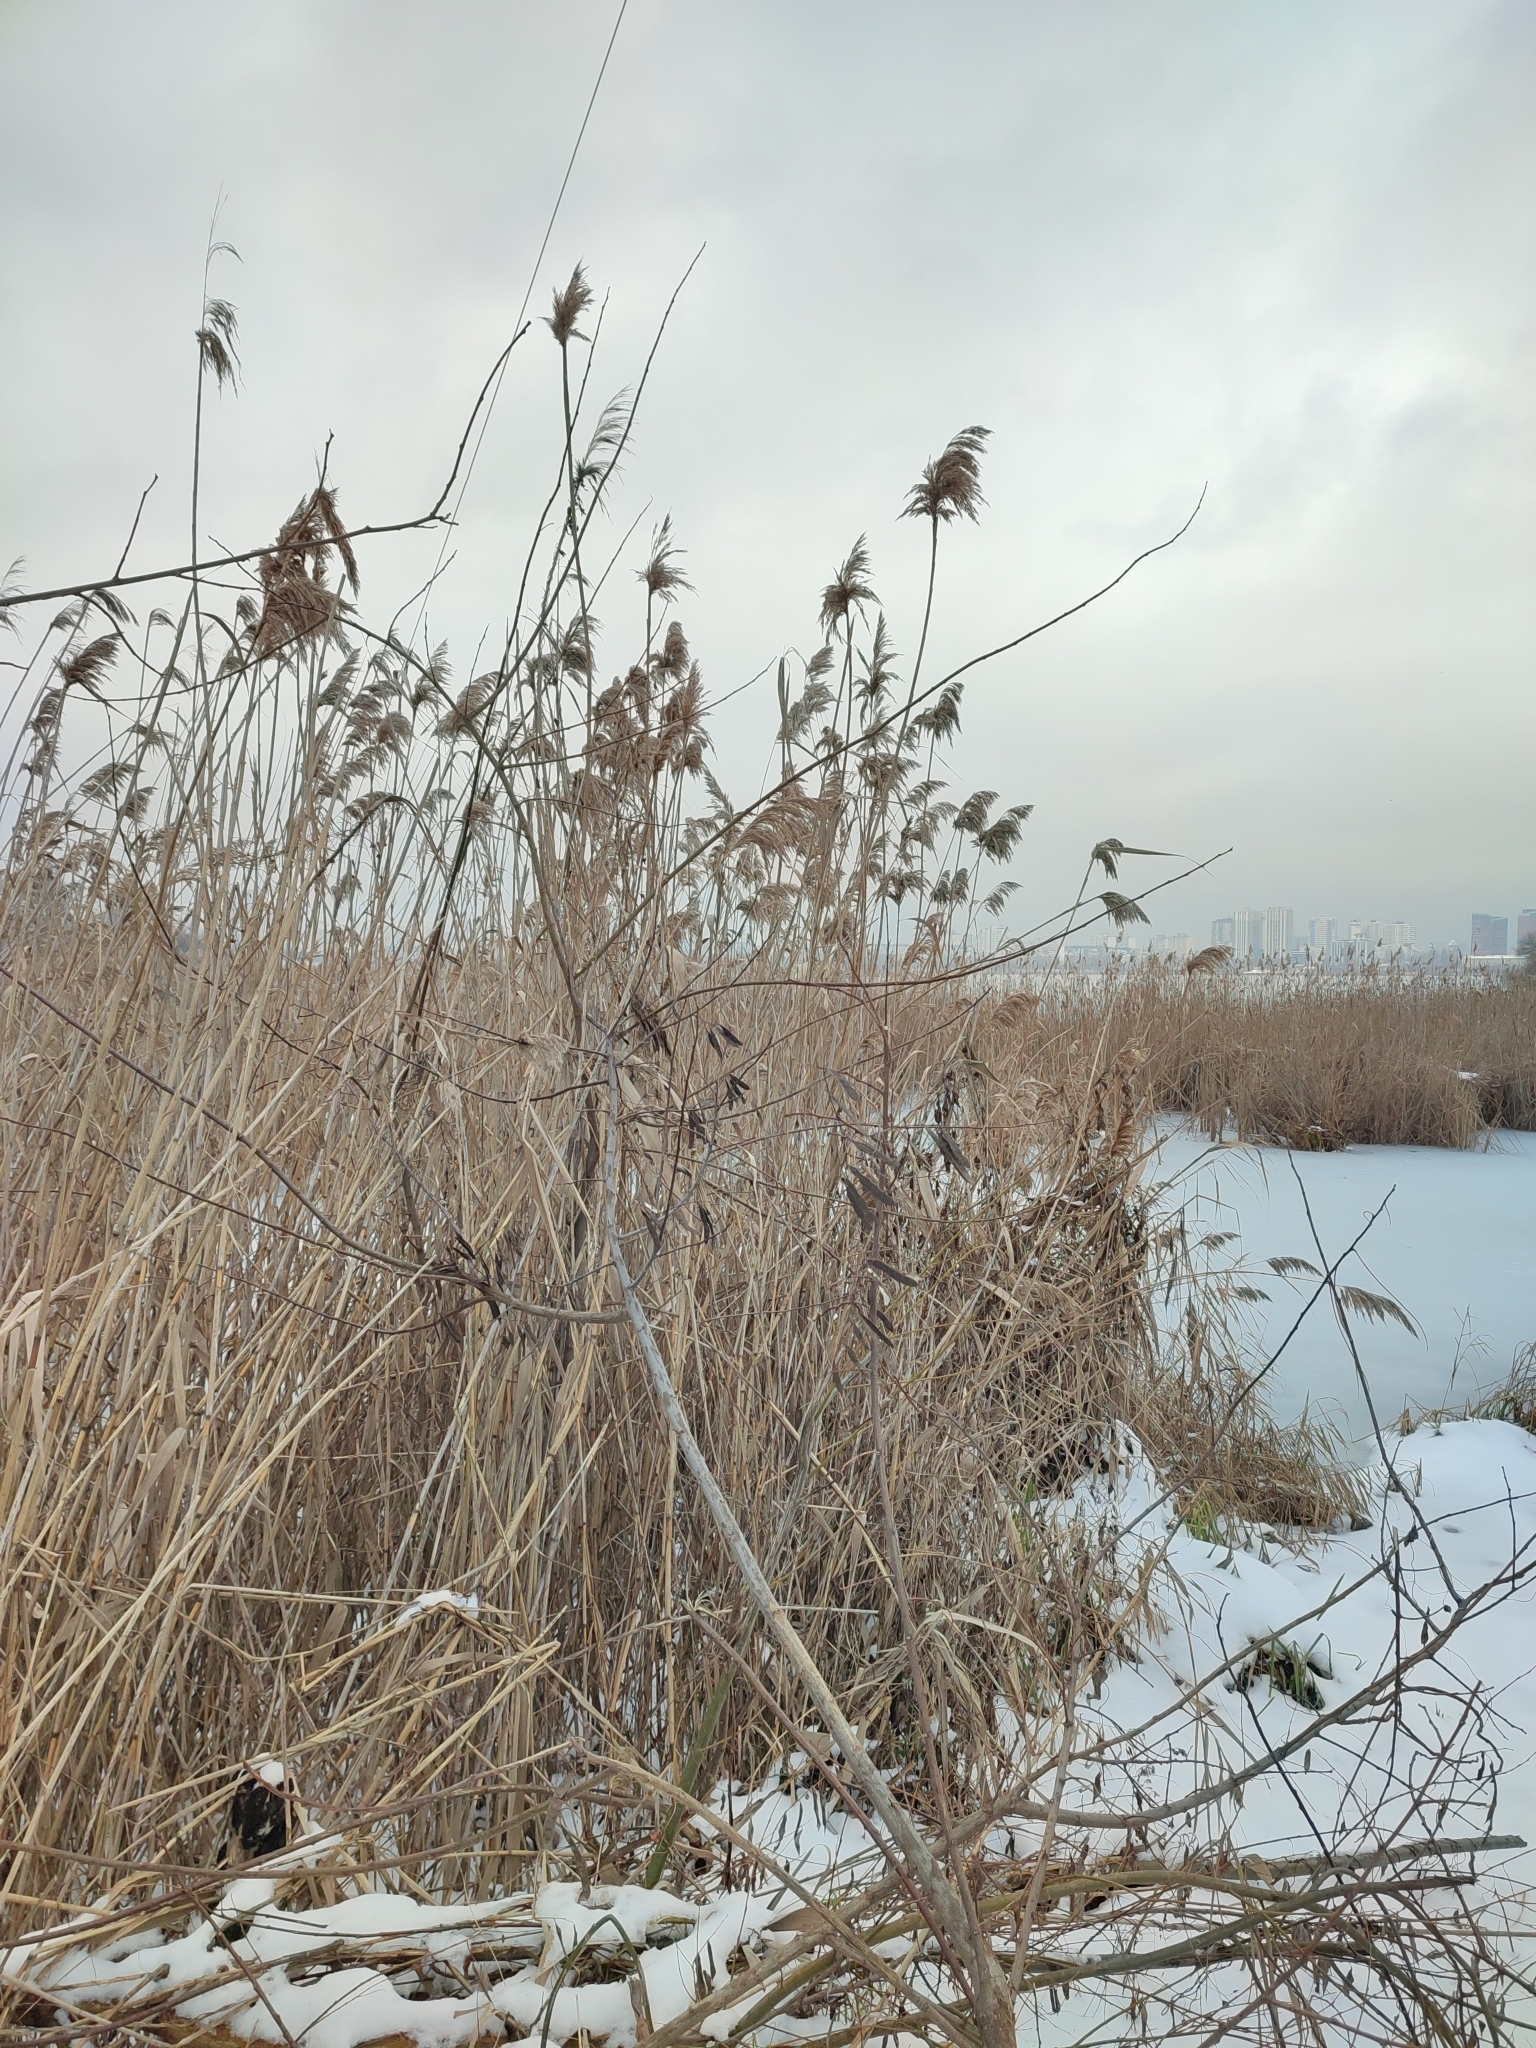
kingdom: Plantae
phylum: Tracheophyta
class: Liliopsida
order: Poales
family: Poaceae
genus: Phragmites
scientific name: Phragmites australis
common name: Common reed
